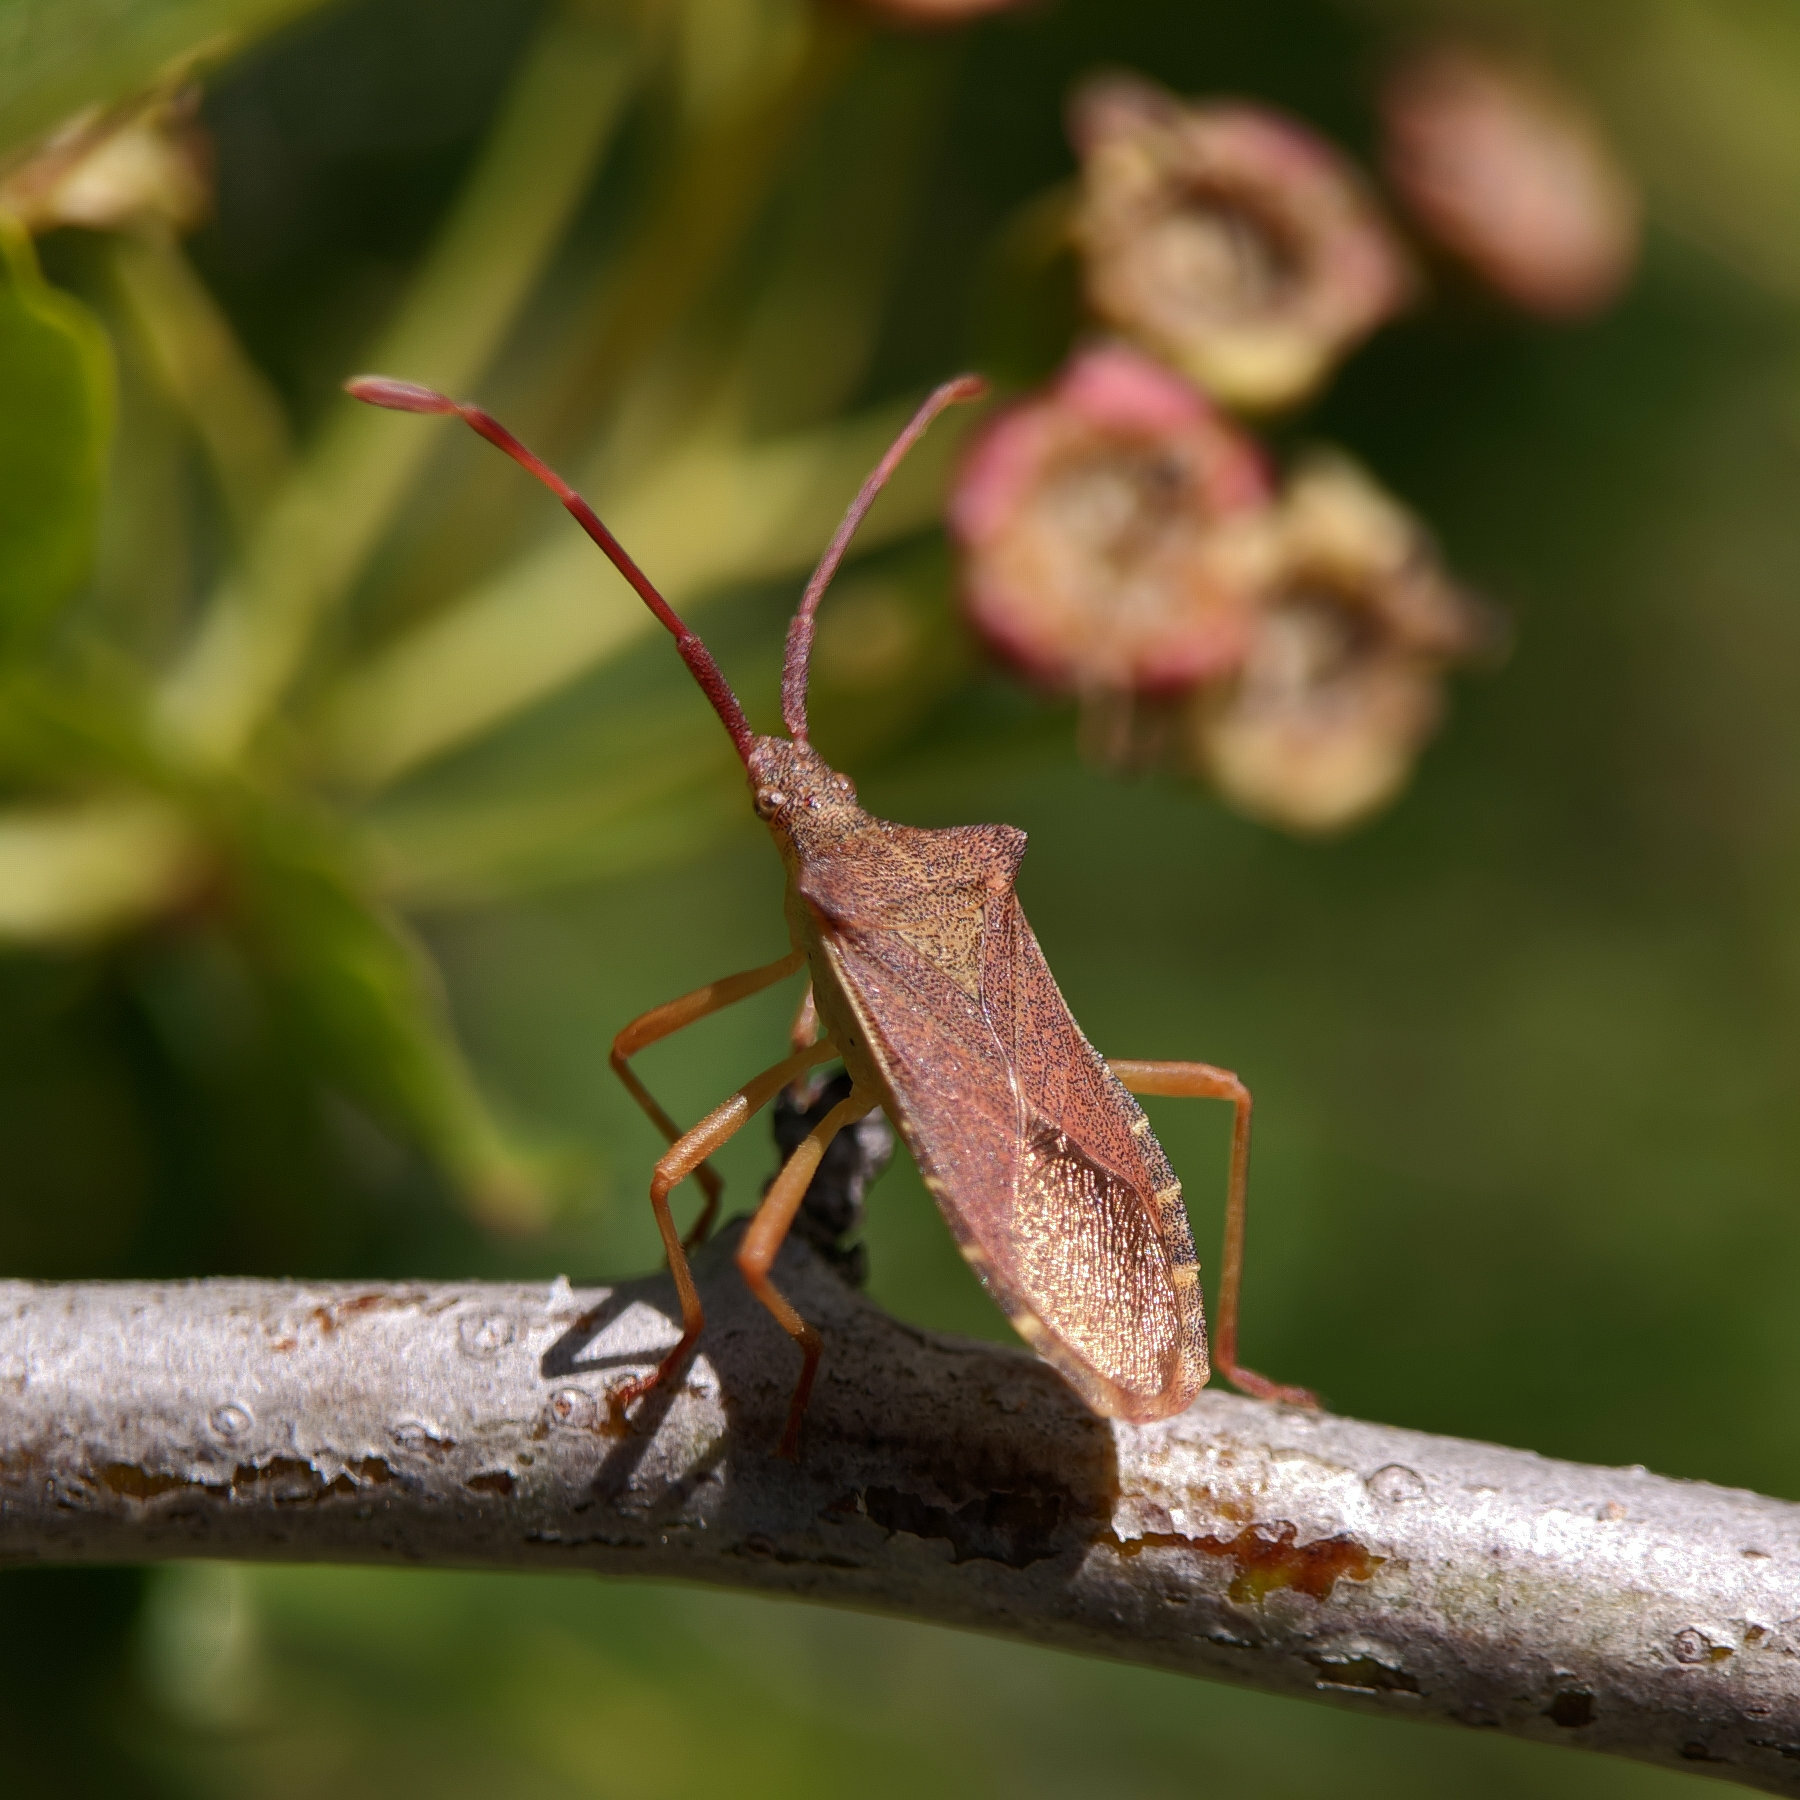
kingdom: Animalia
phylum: Arthropoda
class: Insecta
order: Hemiptera
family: Coreidae
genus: Gonocerus
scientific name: Gonocerus acuteangulatus
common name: Box bug
